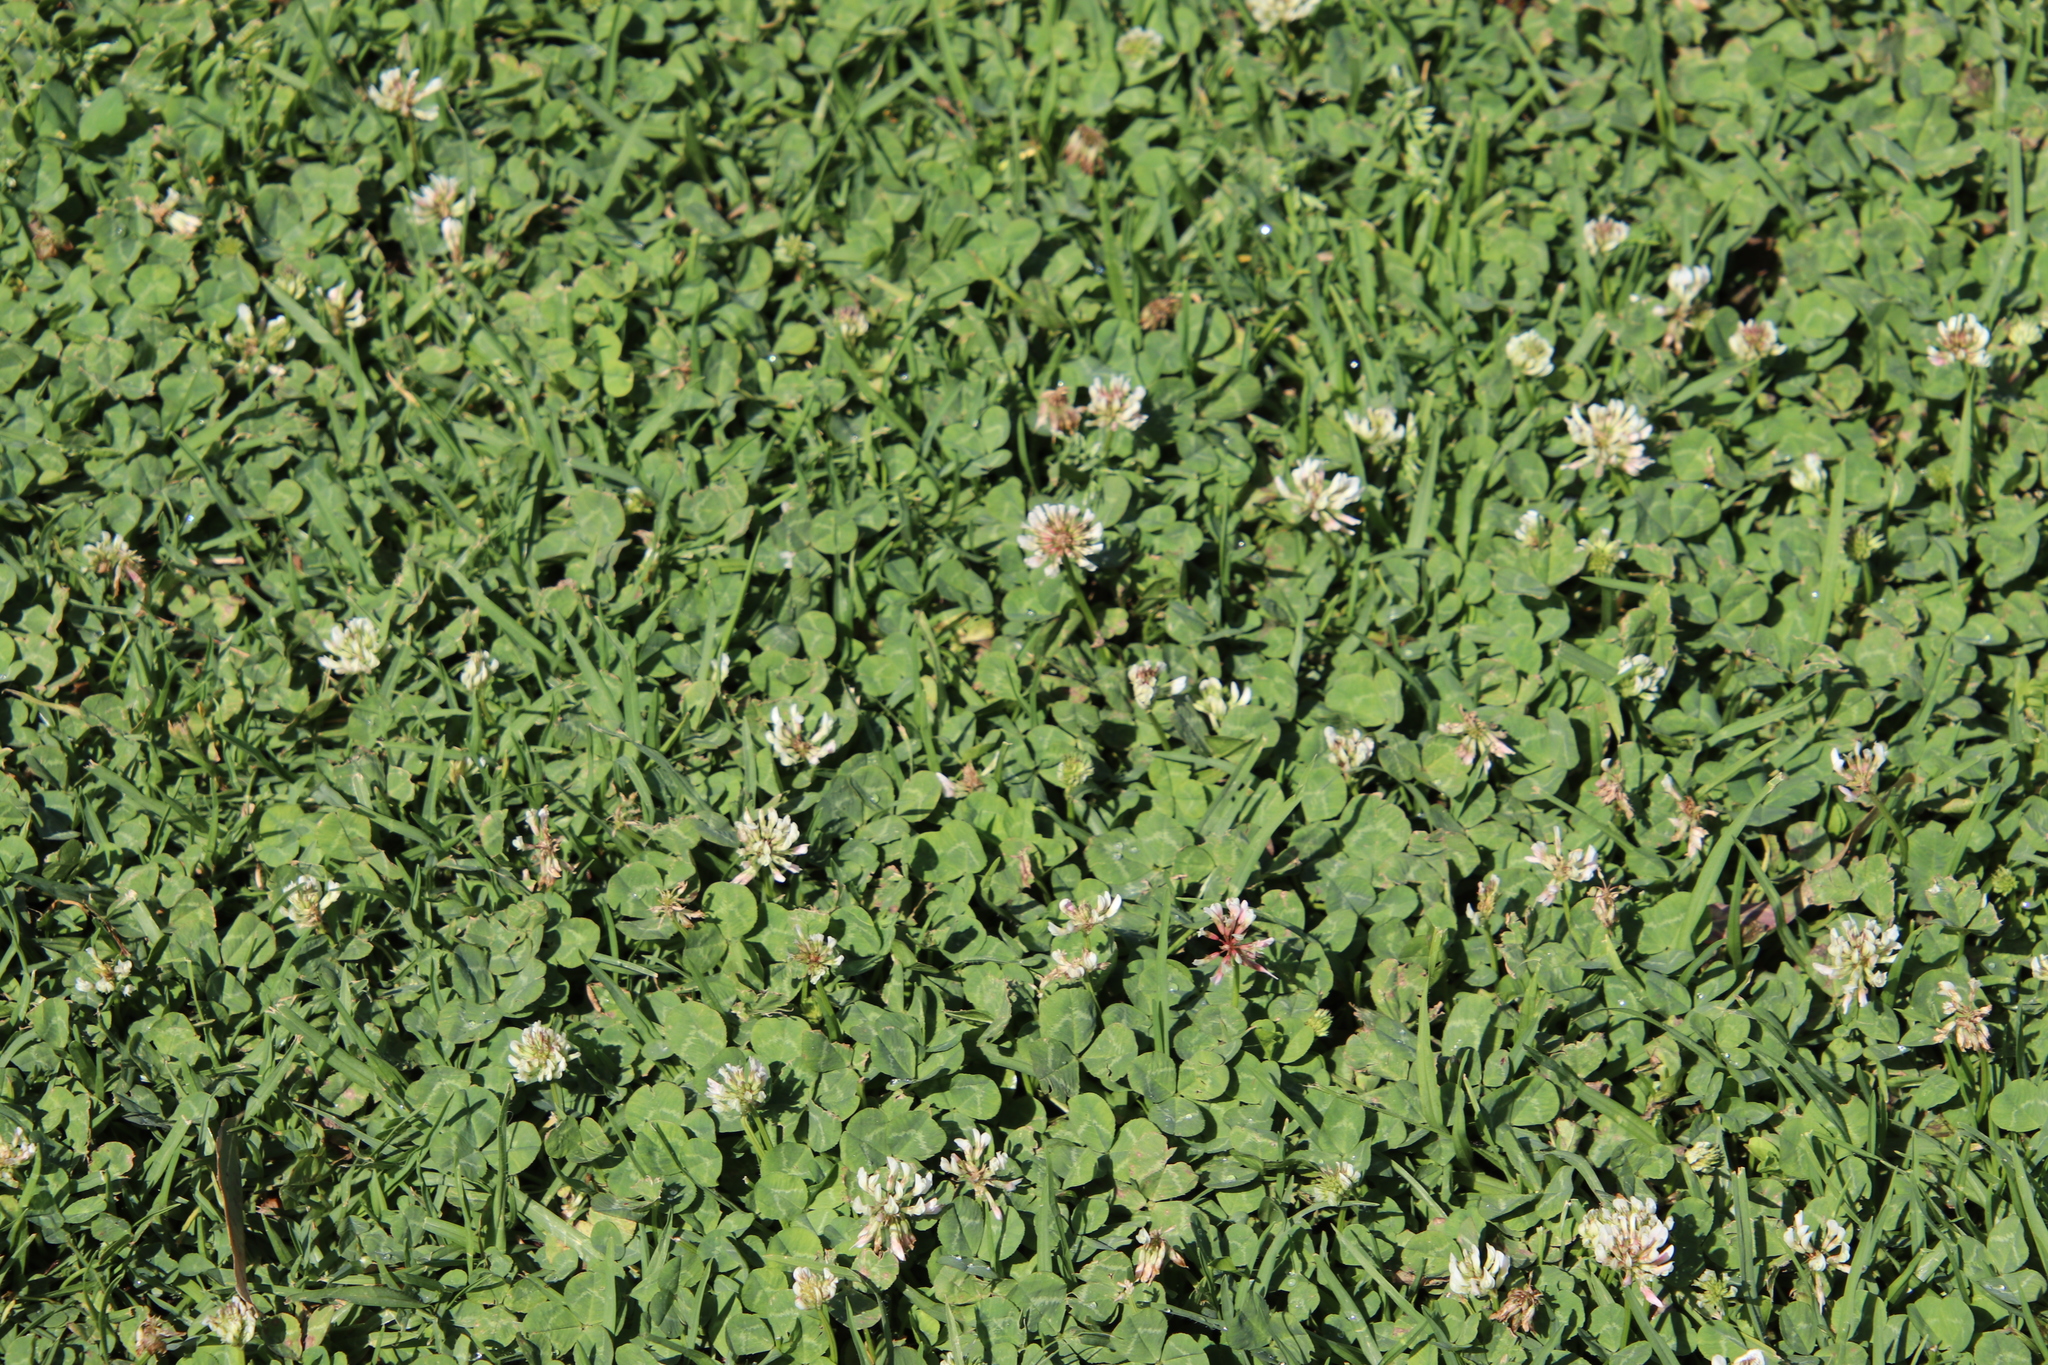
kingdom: Plantae
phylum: Tracheophyta
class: Magnoliopsida
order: Fabales
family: Fabaceae
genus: Trifolium
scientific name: Trifolium repens
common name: White clover
